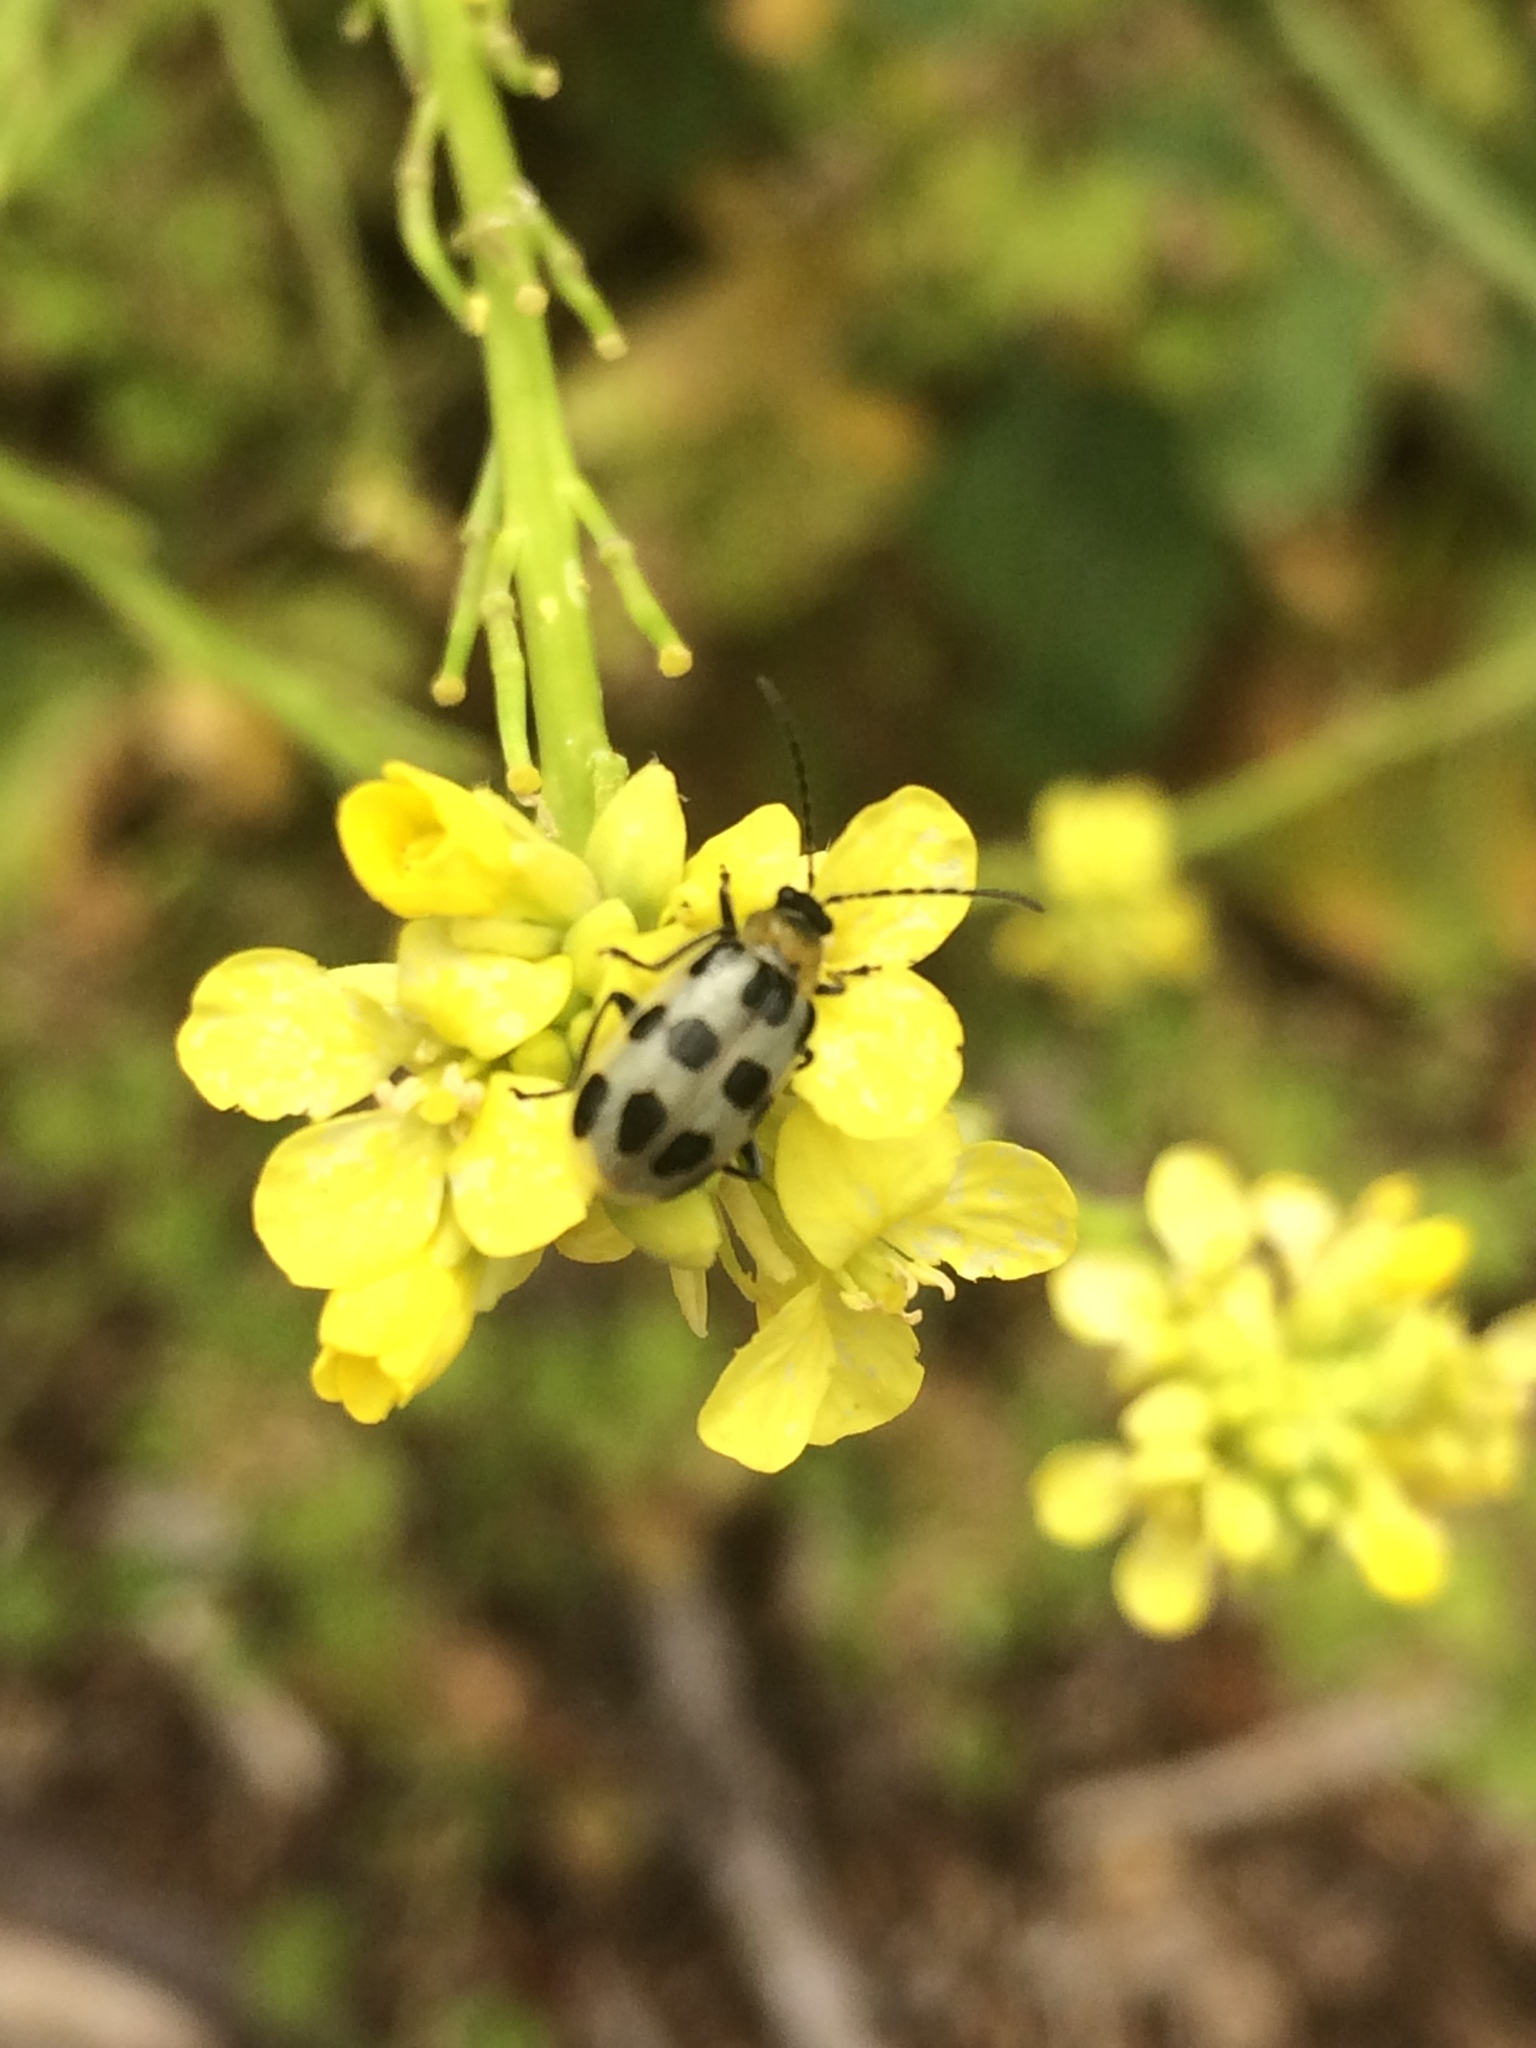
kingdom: Animalia
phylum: Arthropoda
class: Insecta
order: Coleoptera
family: Chrysomelidae
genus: Diabrotica
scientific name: Diabrotica undecimpunctata
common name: Spotted cucumber beetle
